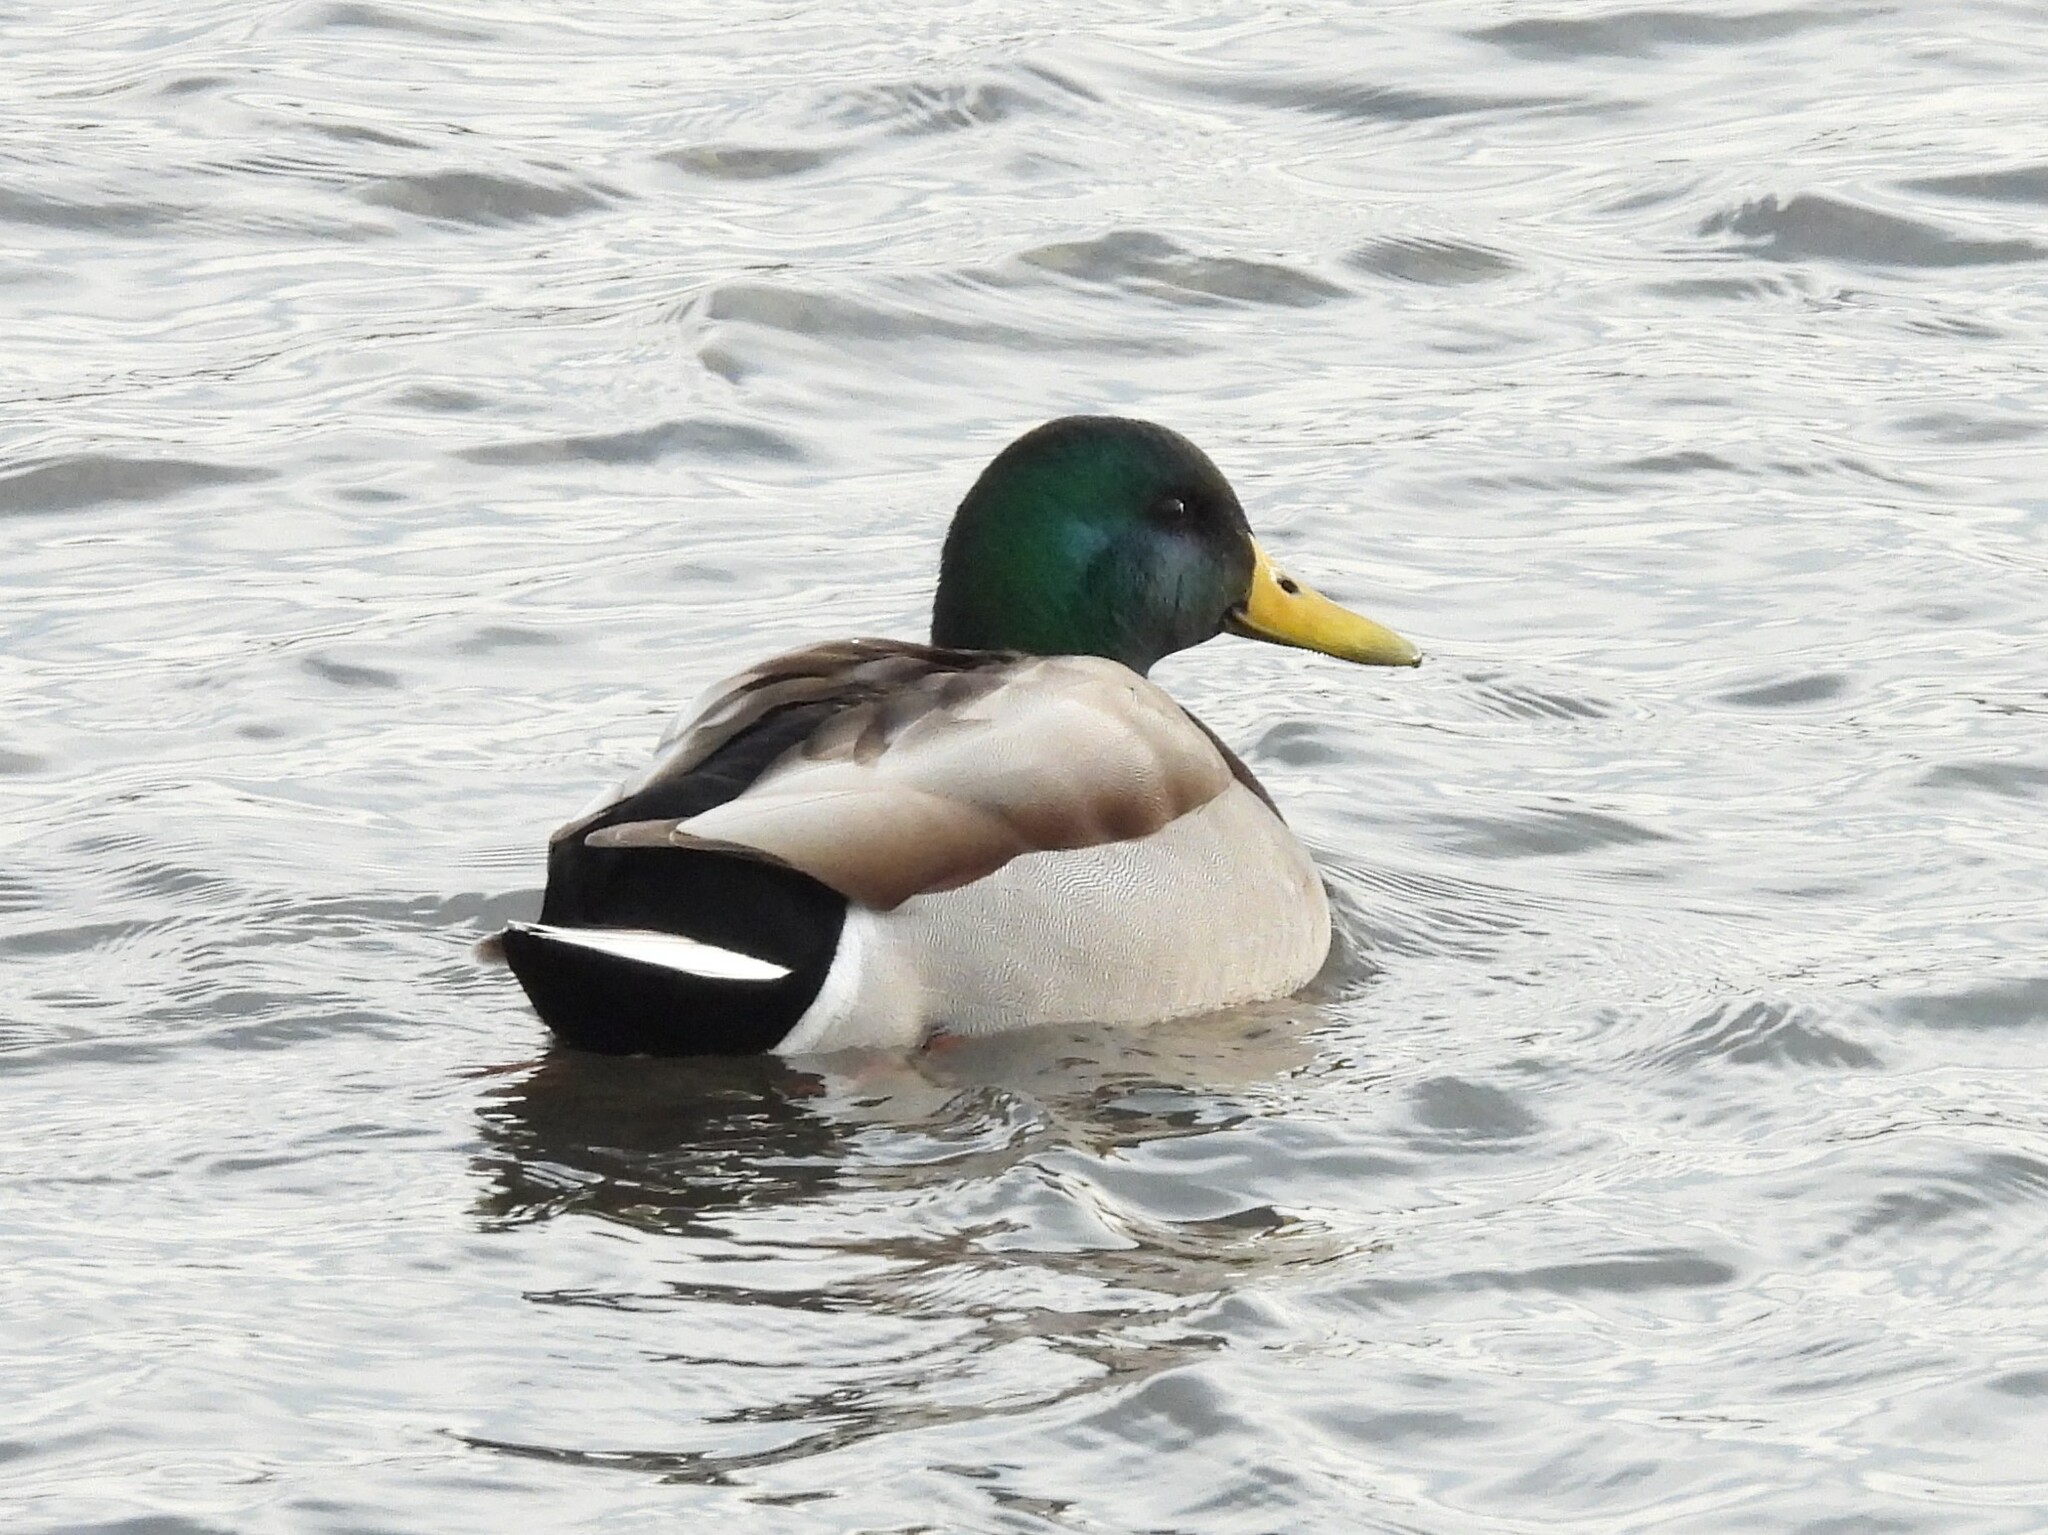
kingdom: Animalia
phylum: Chordata
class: Aves
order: Anseriformes
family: Anatidae
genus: Anas
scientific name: Anas platyrhynchos
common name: Mallard
